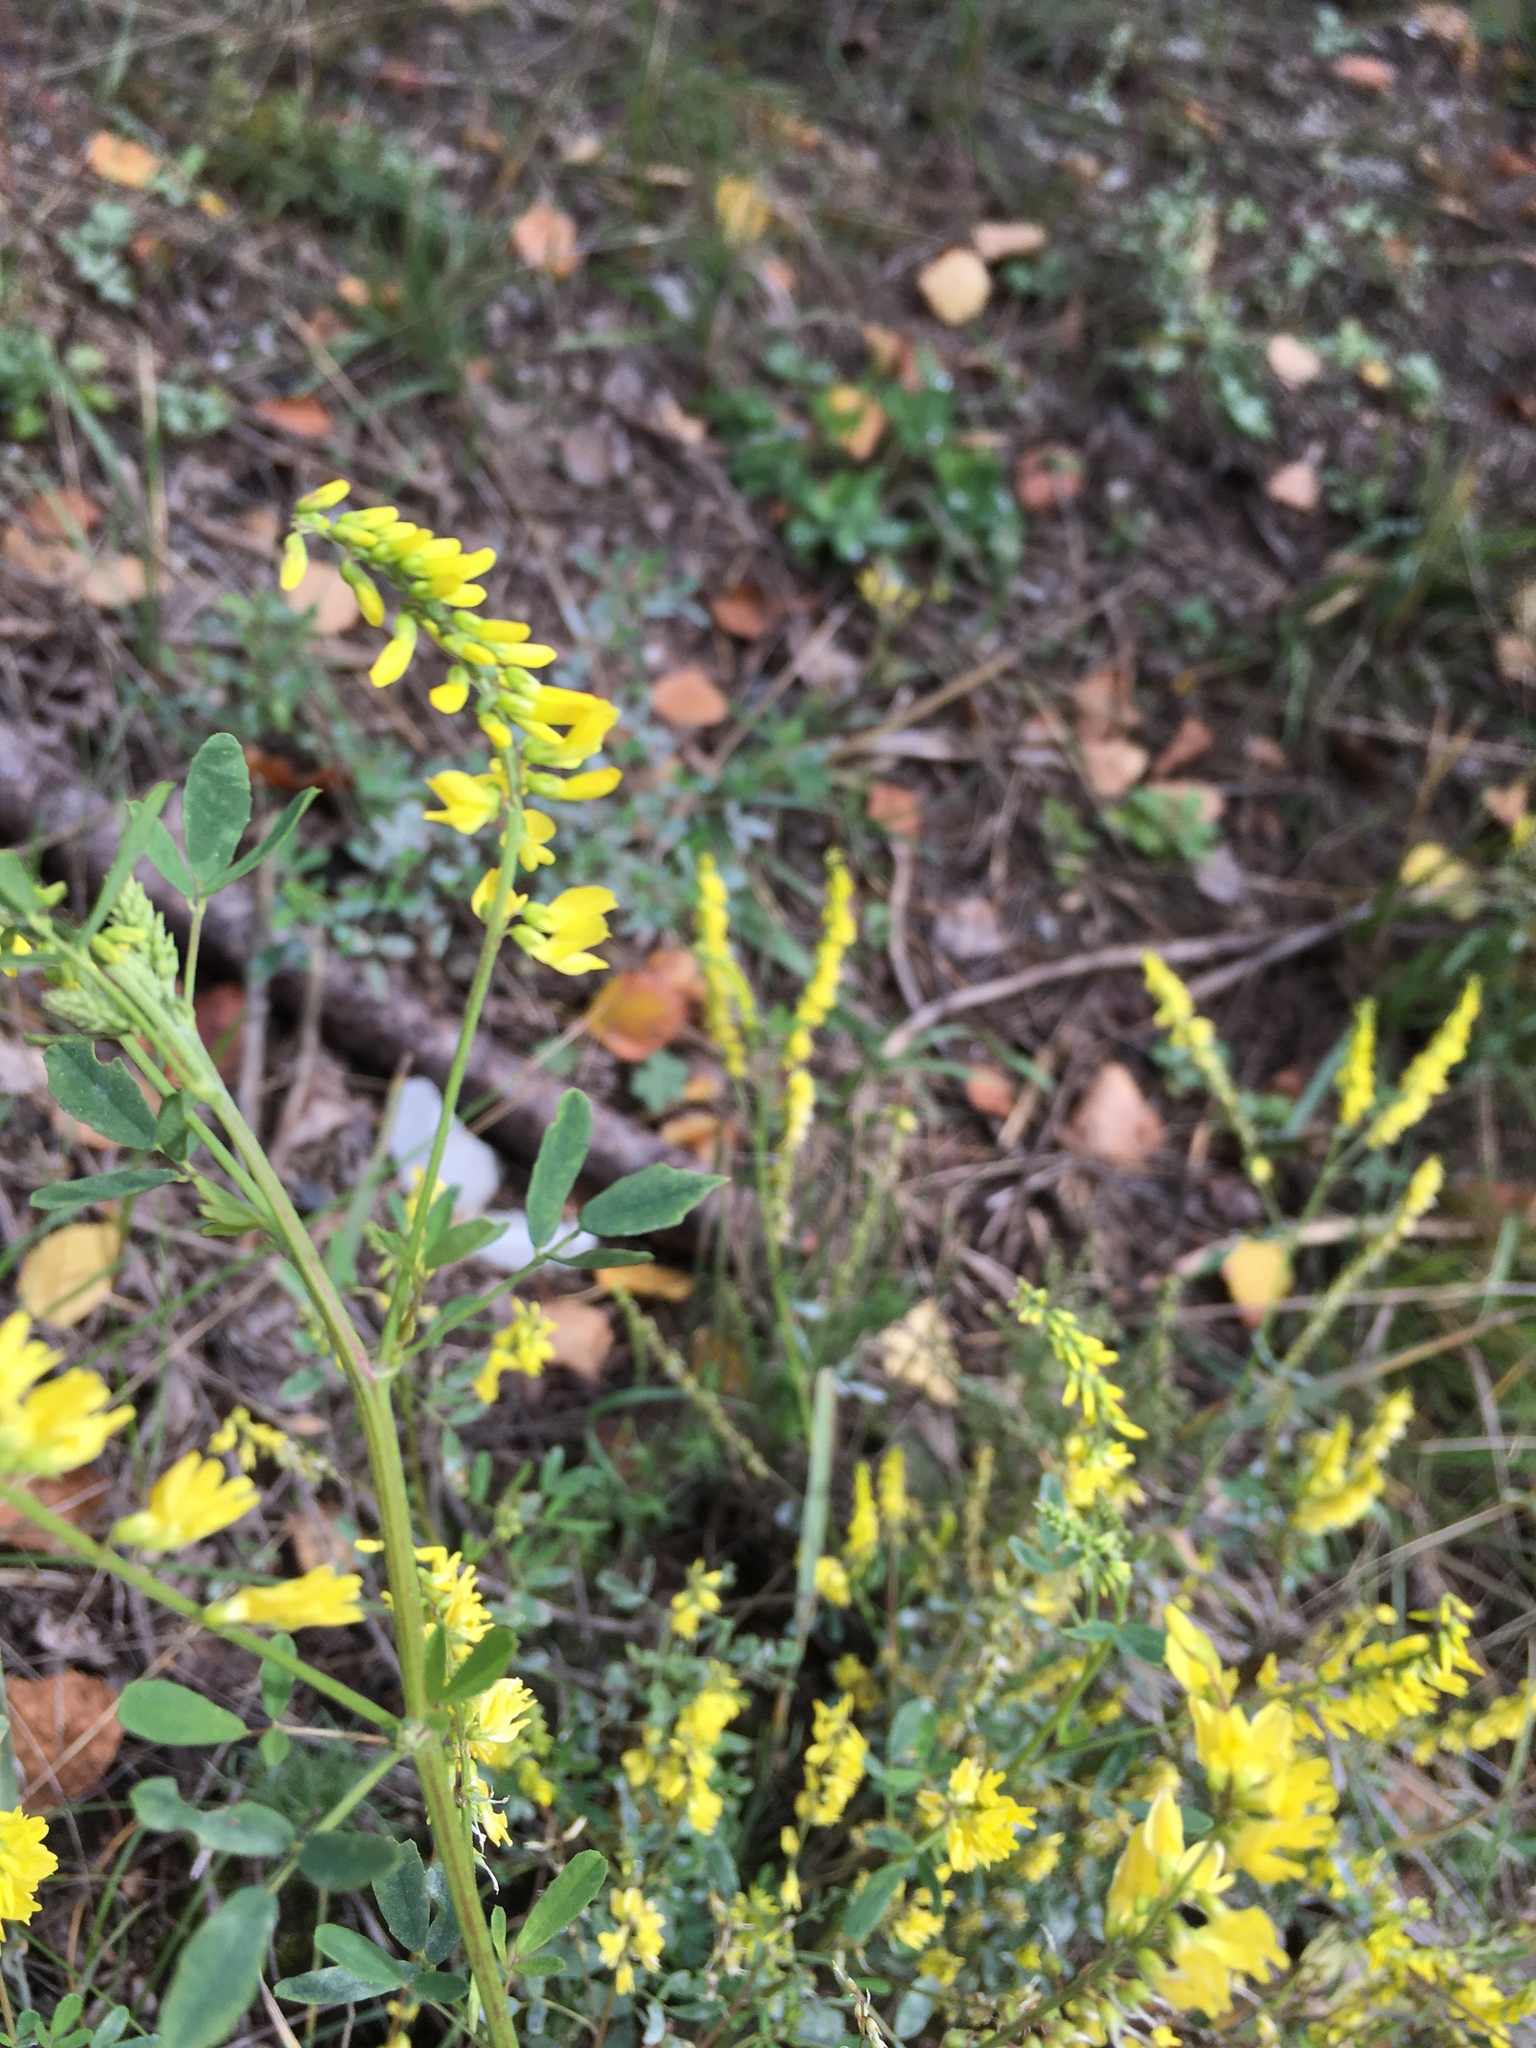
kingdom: Plantae
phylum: Tracheophyta
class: Magnoliopsida
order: Fabales
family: Fabaceae
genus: Melilotus
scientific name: Melilotus suaveolens
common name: Daghestan sweet-clover
